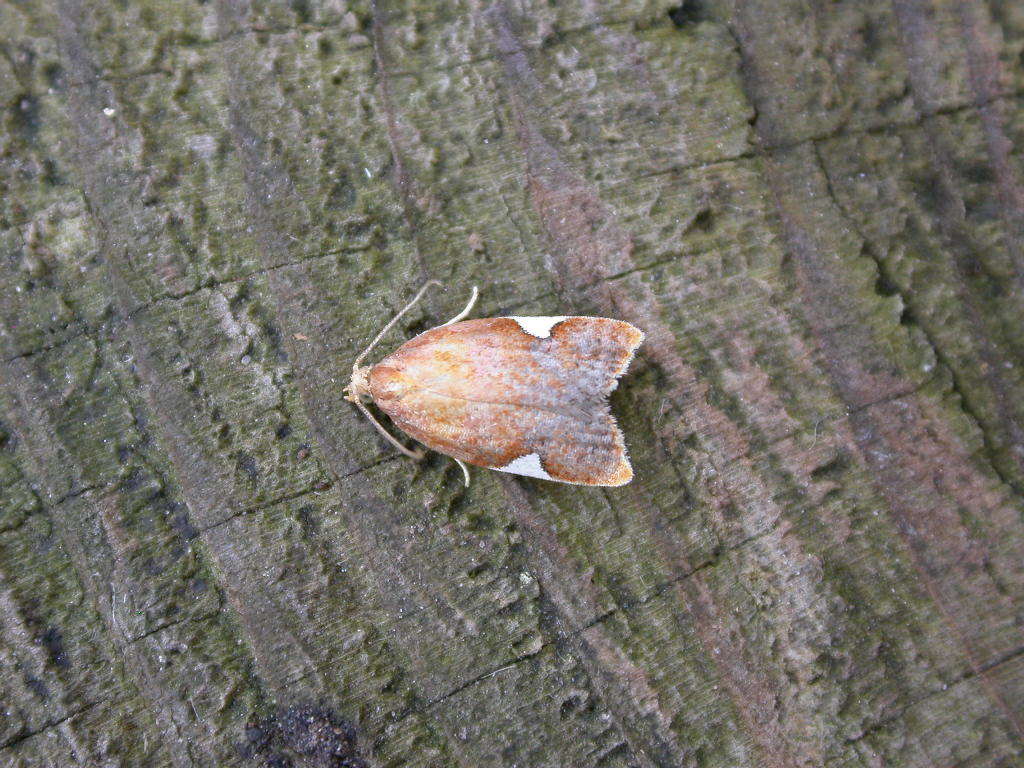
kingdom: Animalia
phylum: Arthropoda
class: Insecta
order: Lepidoptera
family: Tortricidae
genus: Acleris
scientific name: Acleris holmiana
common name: Golden leafroller moth
